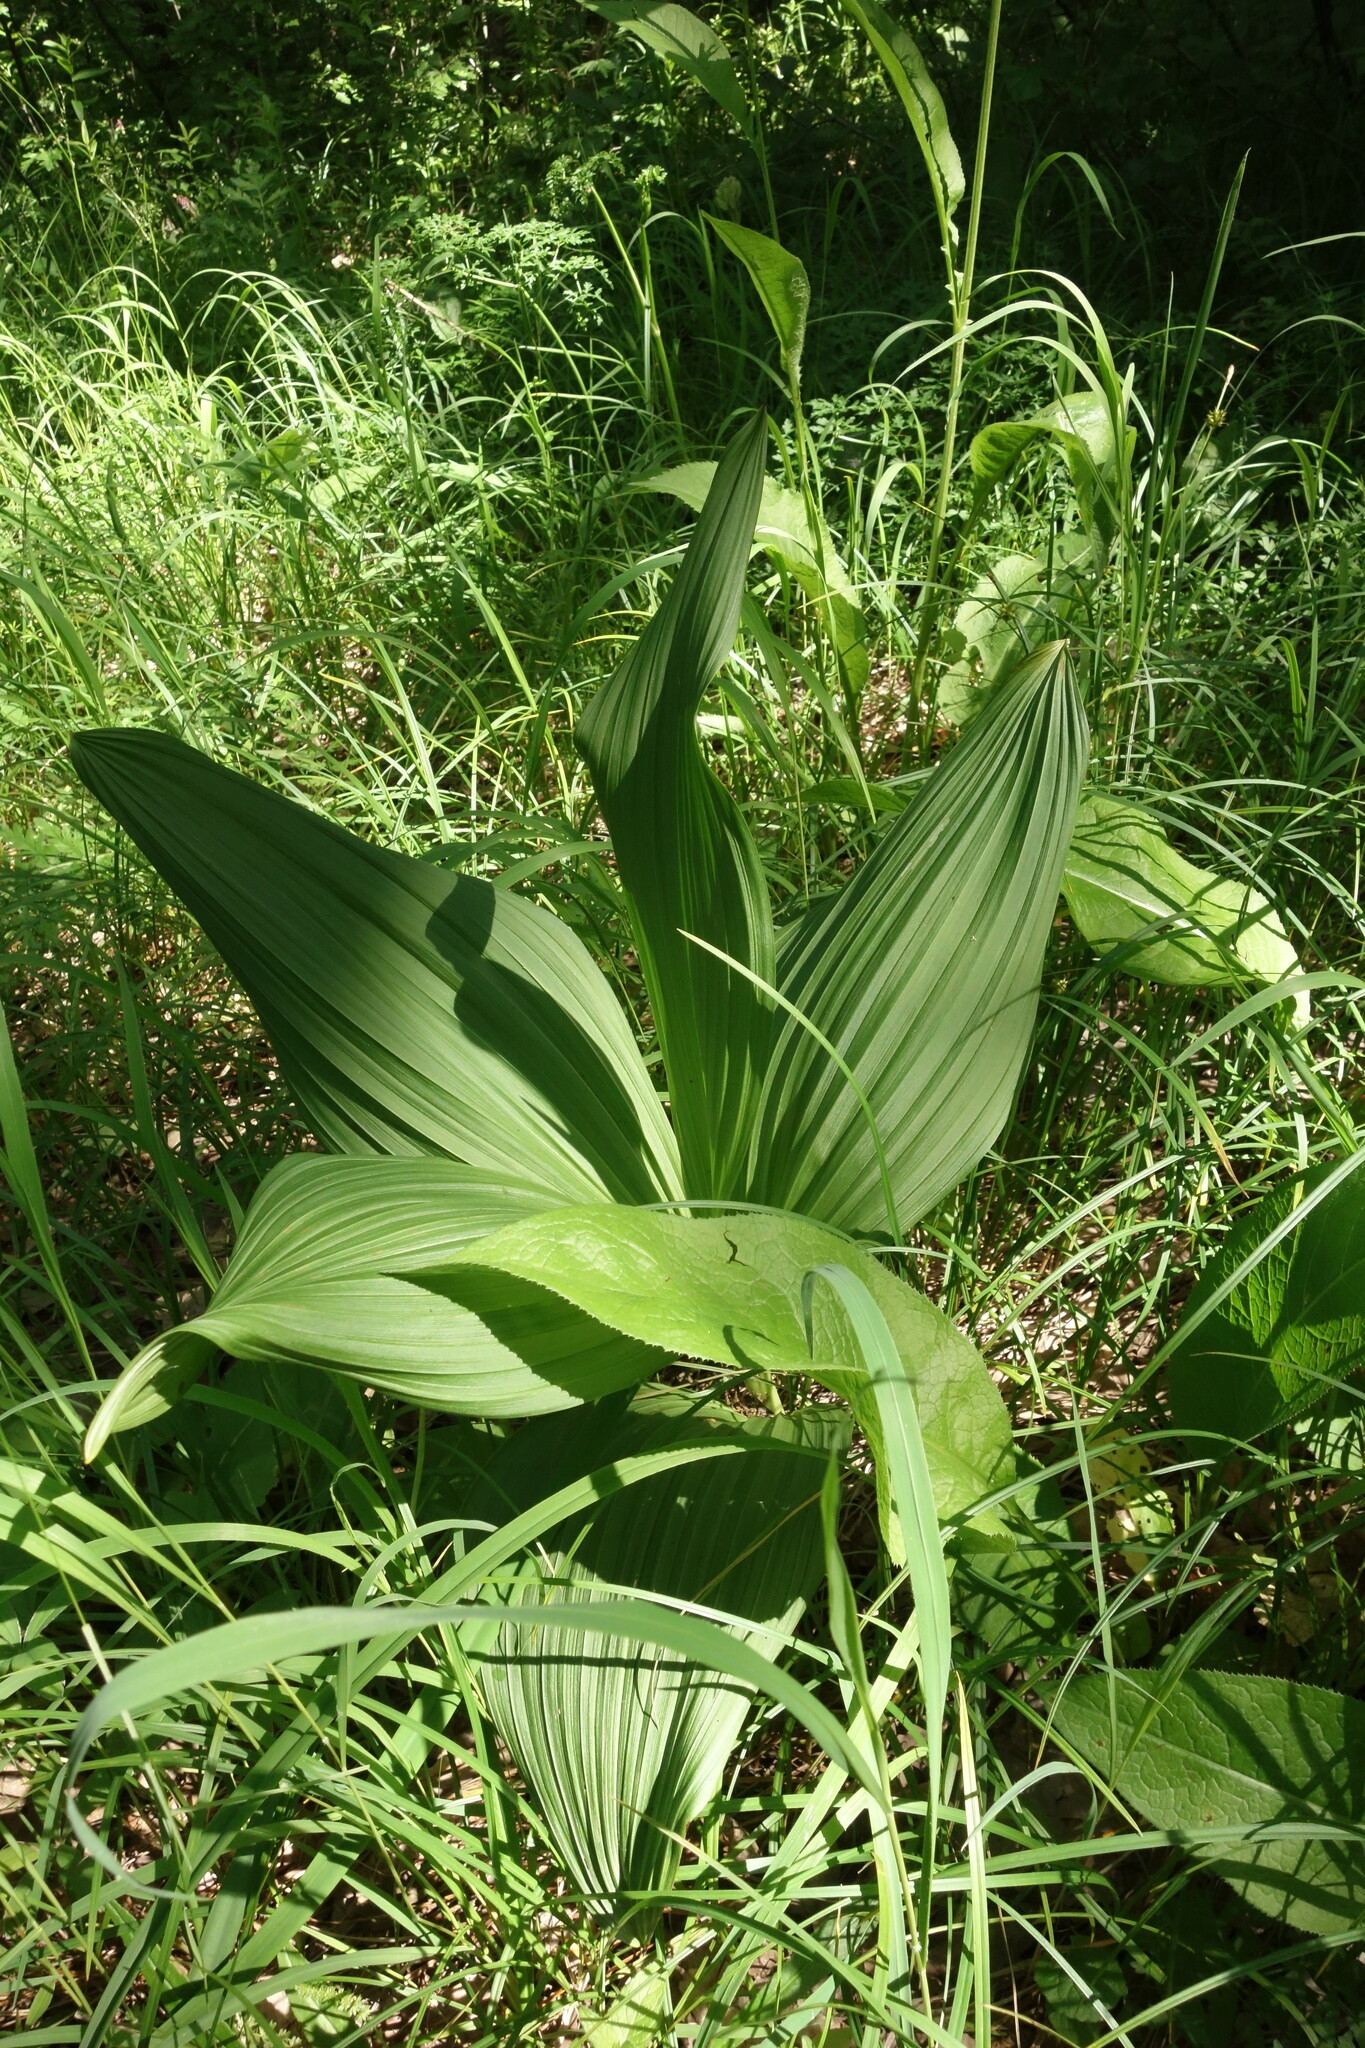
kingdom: Plantae
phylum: Tracheophyta
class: Liliopsida
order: Liliales
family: Melanthiaceae
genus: Veratrum
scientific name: Veratrum nigrum
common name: Black veratrum
